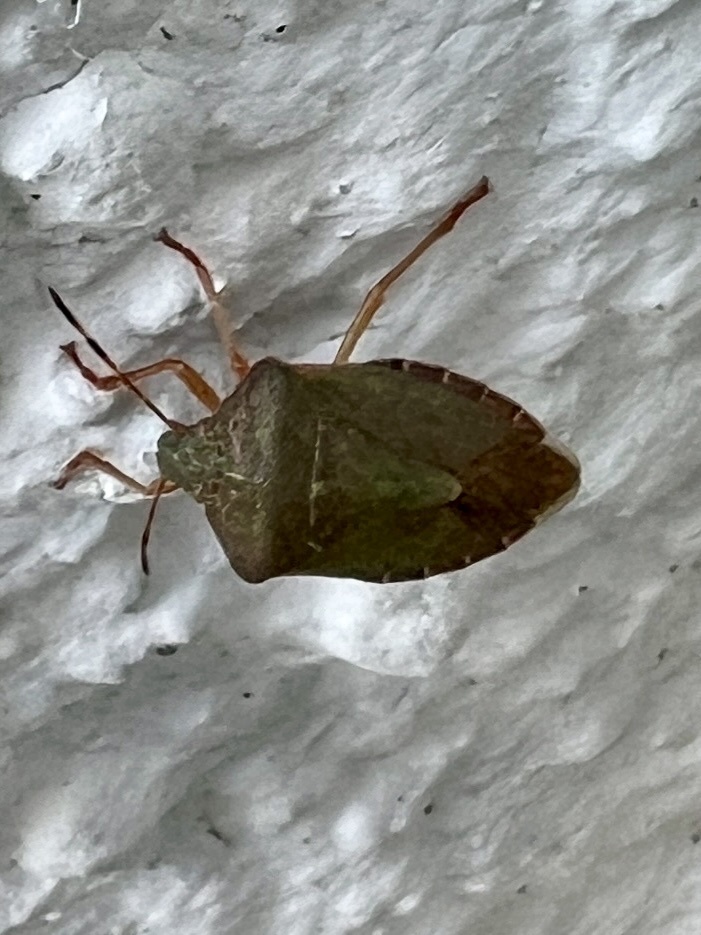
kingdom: Animalia
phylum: Arthropoda
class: Insecta
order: Hemiptera
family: Pentatomidae
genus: Palomena
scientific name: Palomena prasina
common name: Green shieldbug
